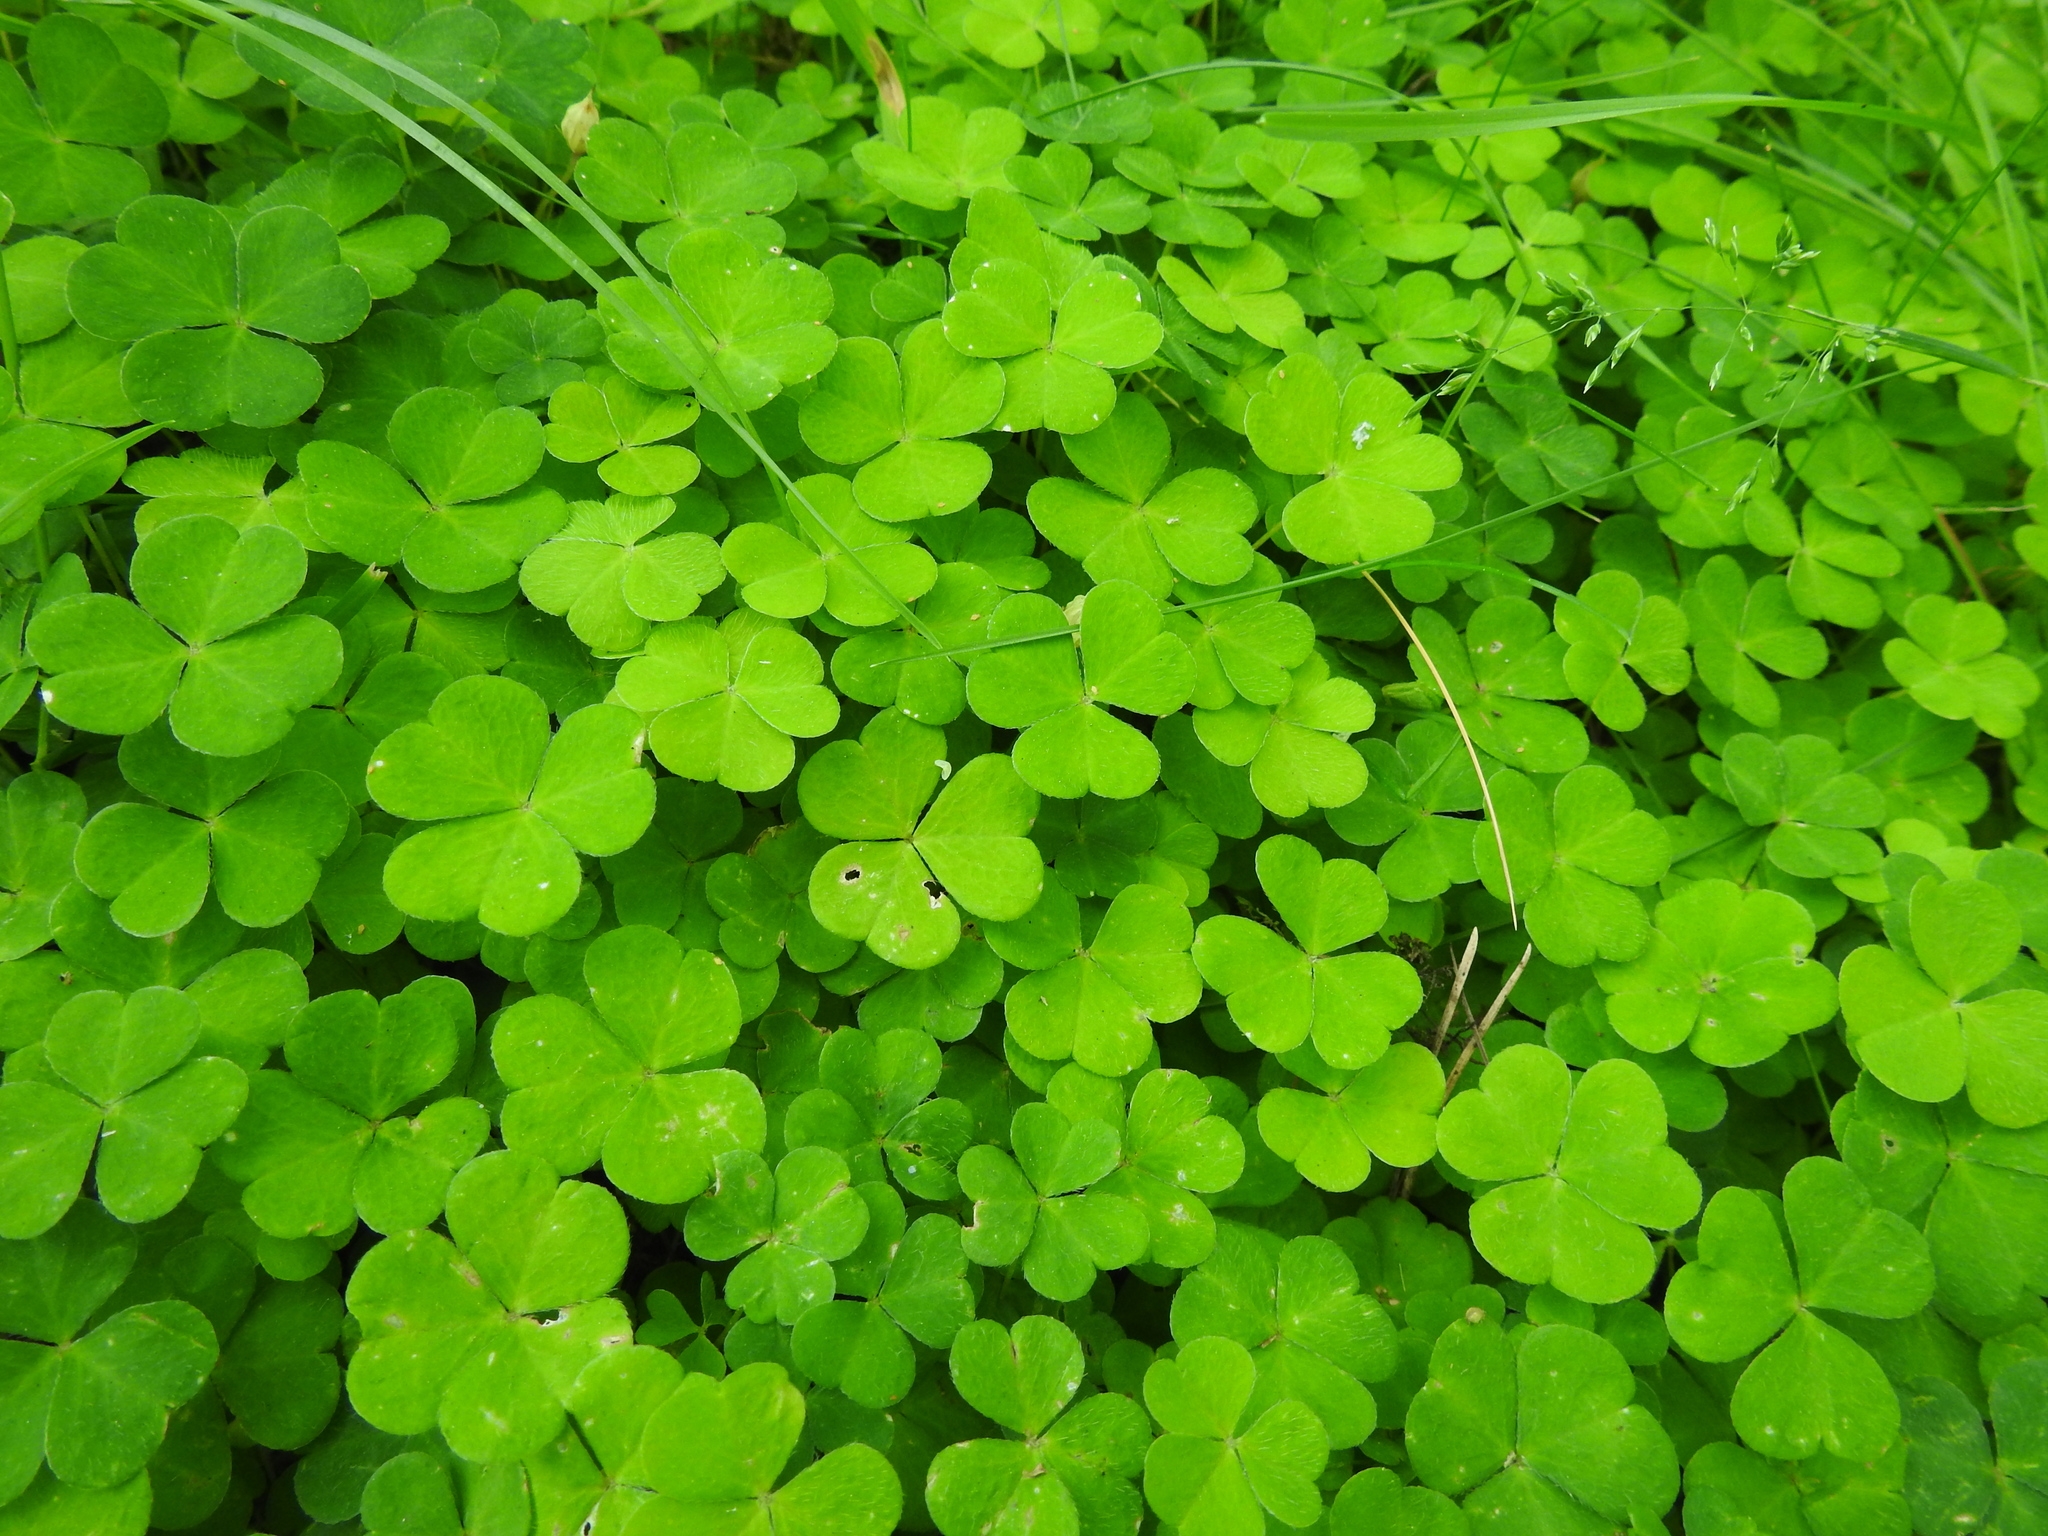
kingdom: Plantae
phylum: Tracheophyta
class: Magnoliopsida
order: Oxalidales
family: Oxalidaceae
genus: Oxalis
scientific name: Oxalis acetosella
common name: Wood-sorrel
